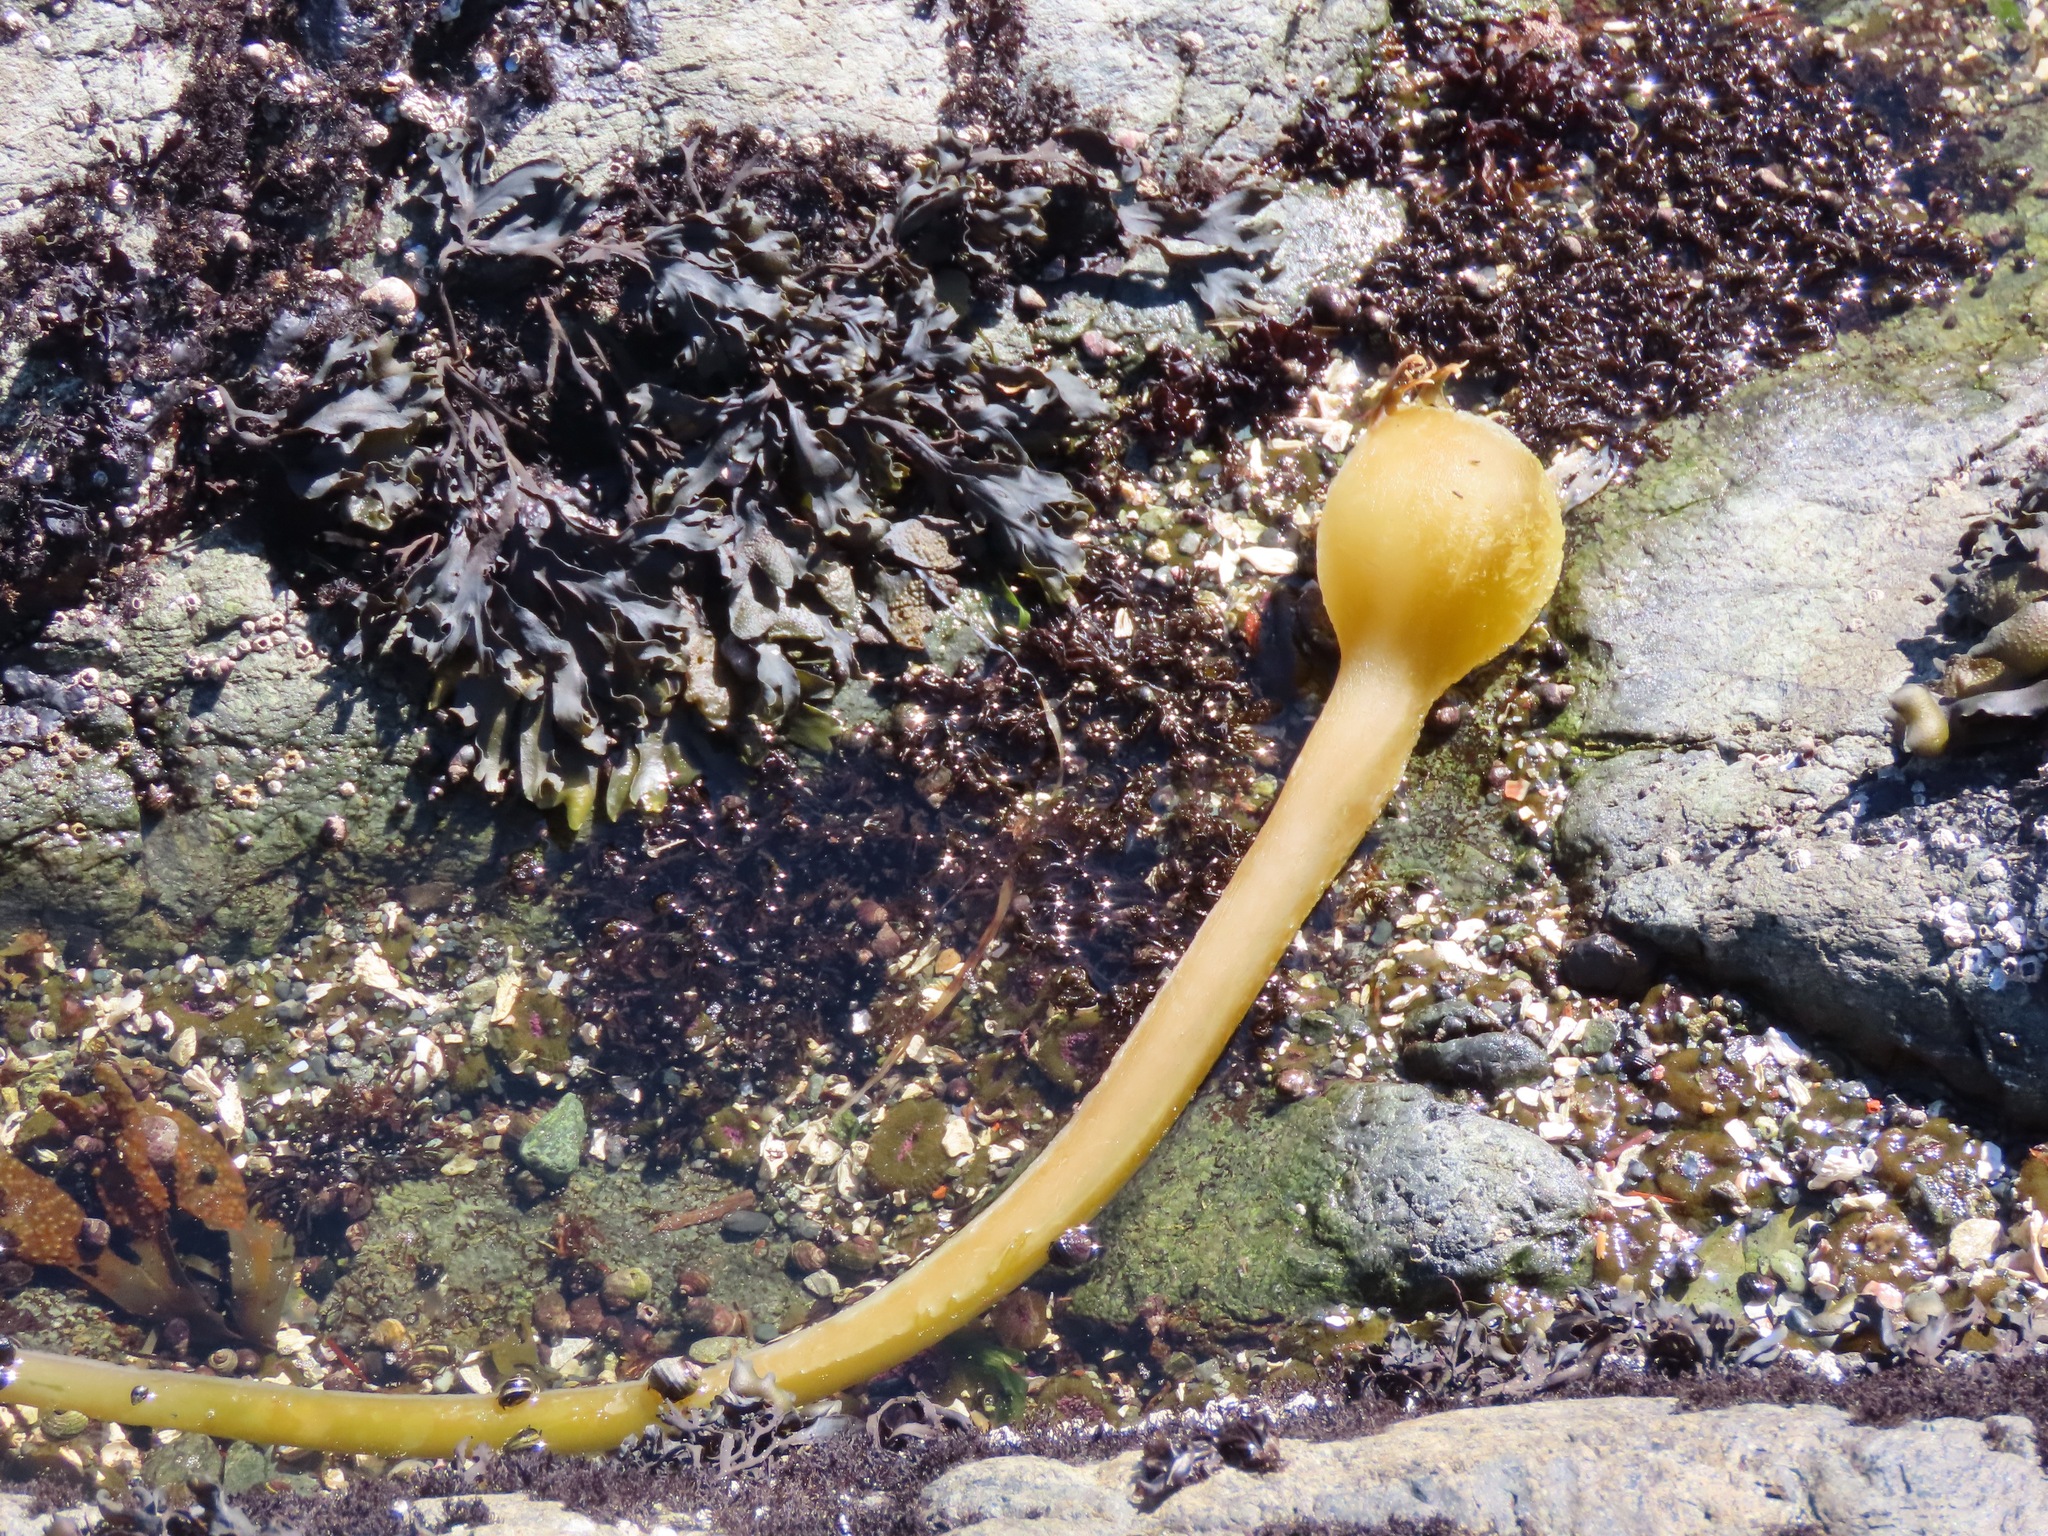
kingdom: Chromista
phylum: Ochrophyta
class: Phaeophyceae
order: Laminariales
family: Laminariaceae
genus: Nereocystis
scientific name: Nereocystis luetkeana
